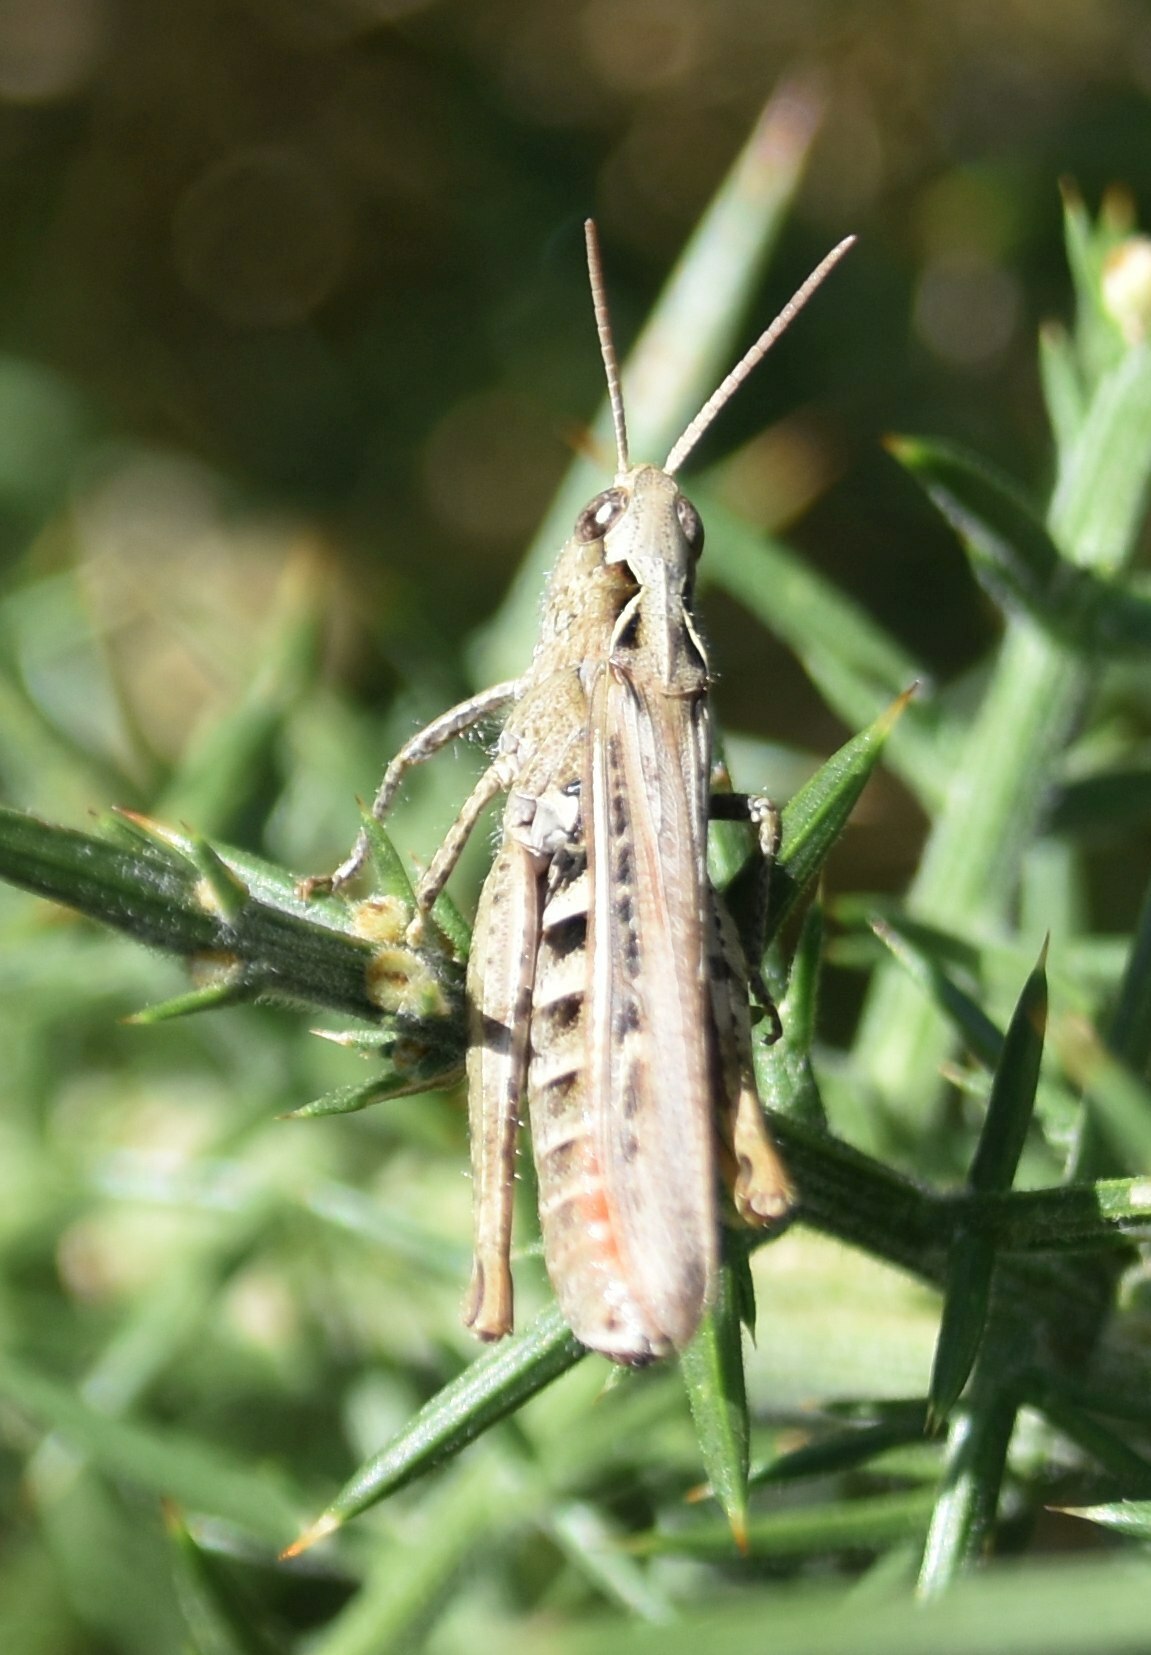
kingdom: Animalia
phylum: Arthropoda
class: Insecta
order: Orthoptera
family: Acrididae
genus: Chorthippus
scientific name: Chorthippus brunneus
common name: Field grasshopper
